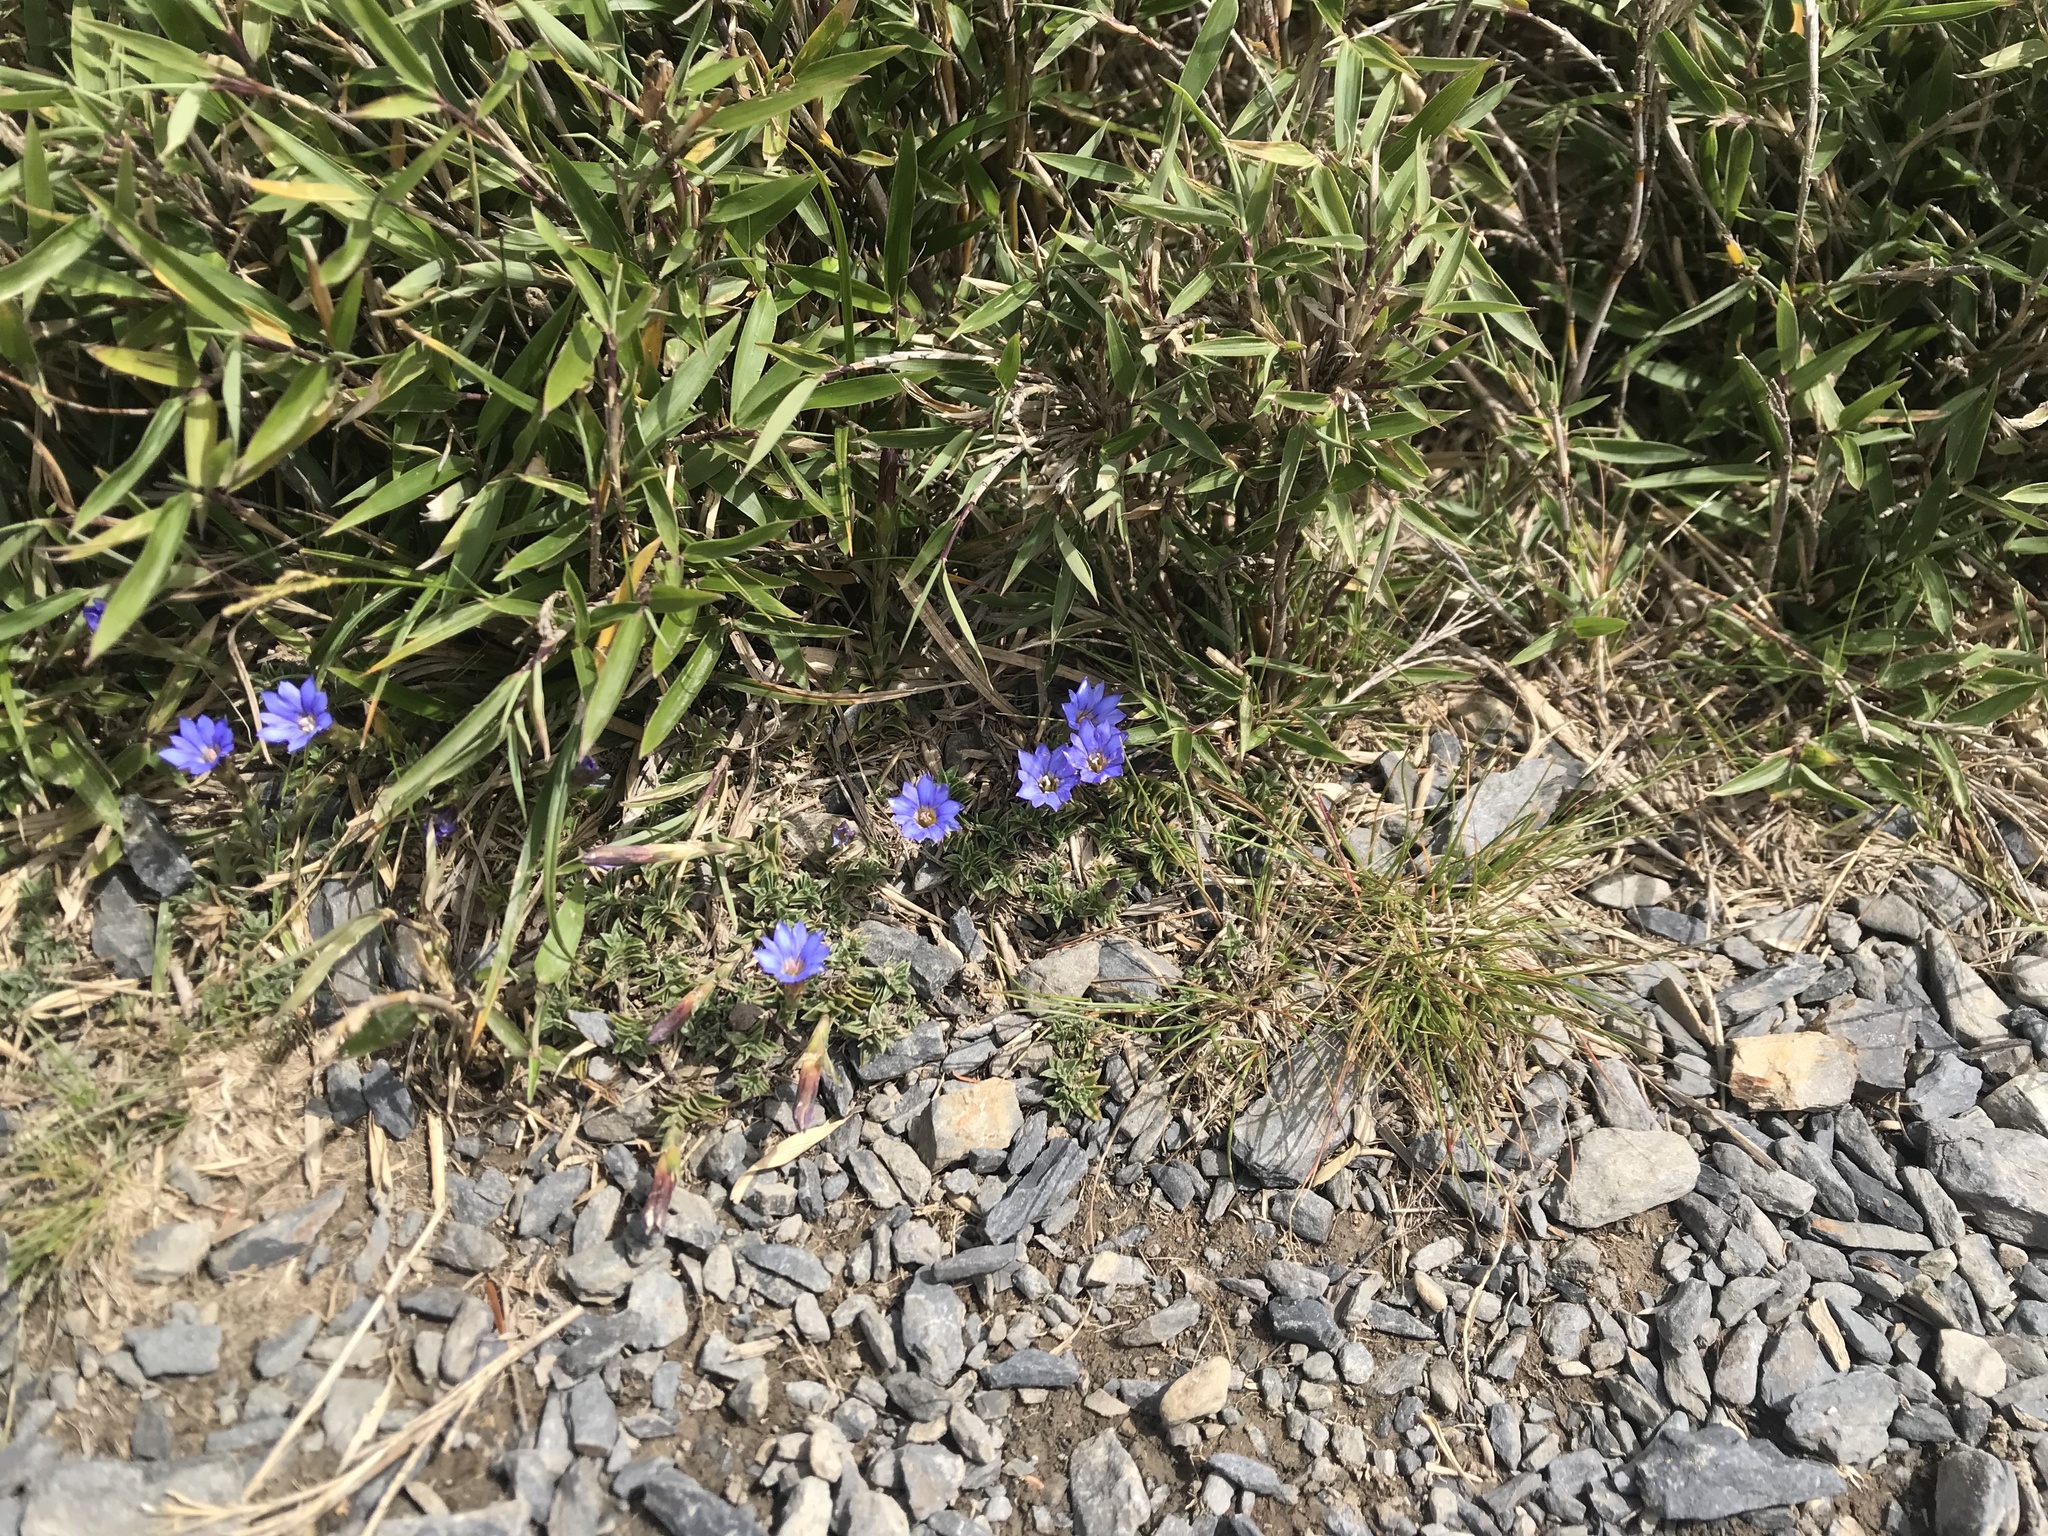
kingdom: Plantae
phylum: Tracheophyta
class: Magnoliopsida
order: Gentianales
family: Gentianaceae
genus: Gentiana
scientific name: Gentiana arisanensis
